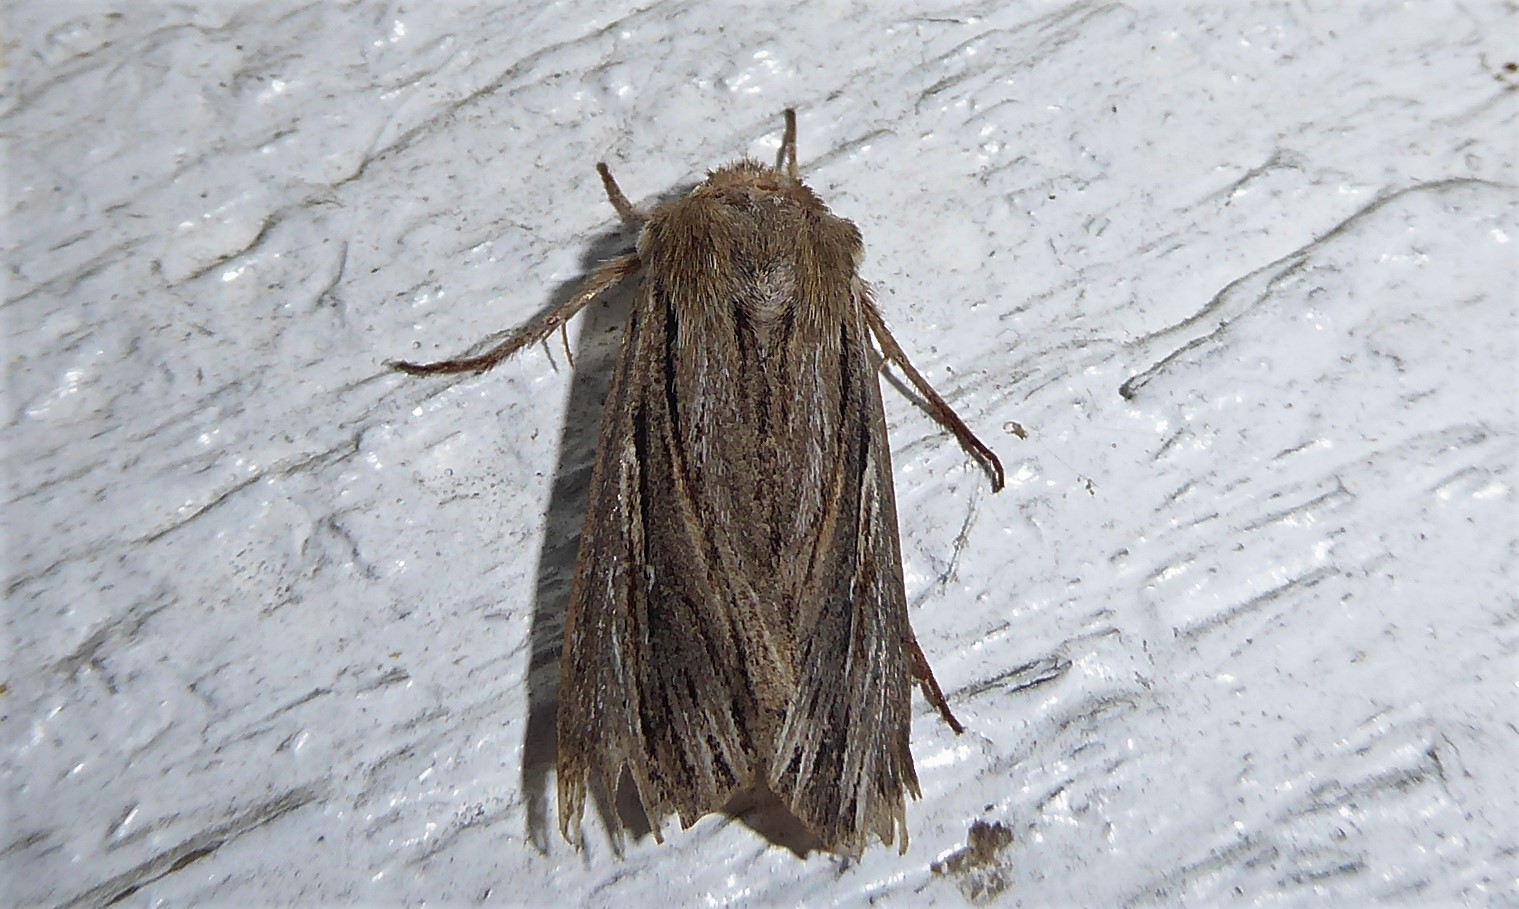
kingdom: Animalia
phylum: Arthropoda
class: Insecta
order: Lepidoptera
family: Noctuidae
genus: Persectania
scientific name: Persectania aversa
